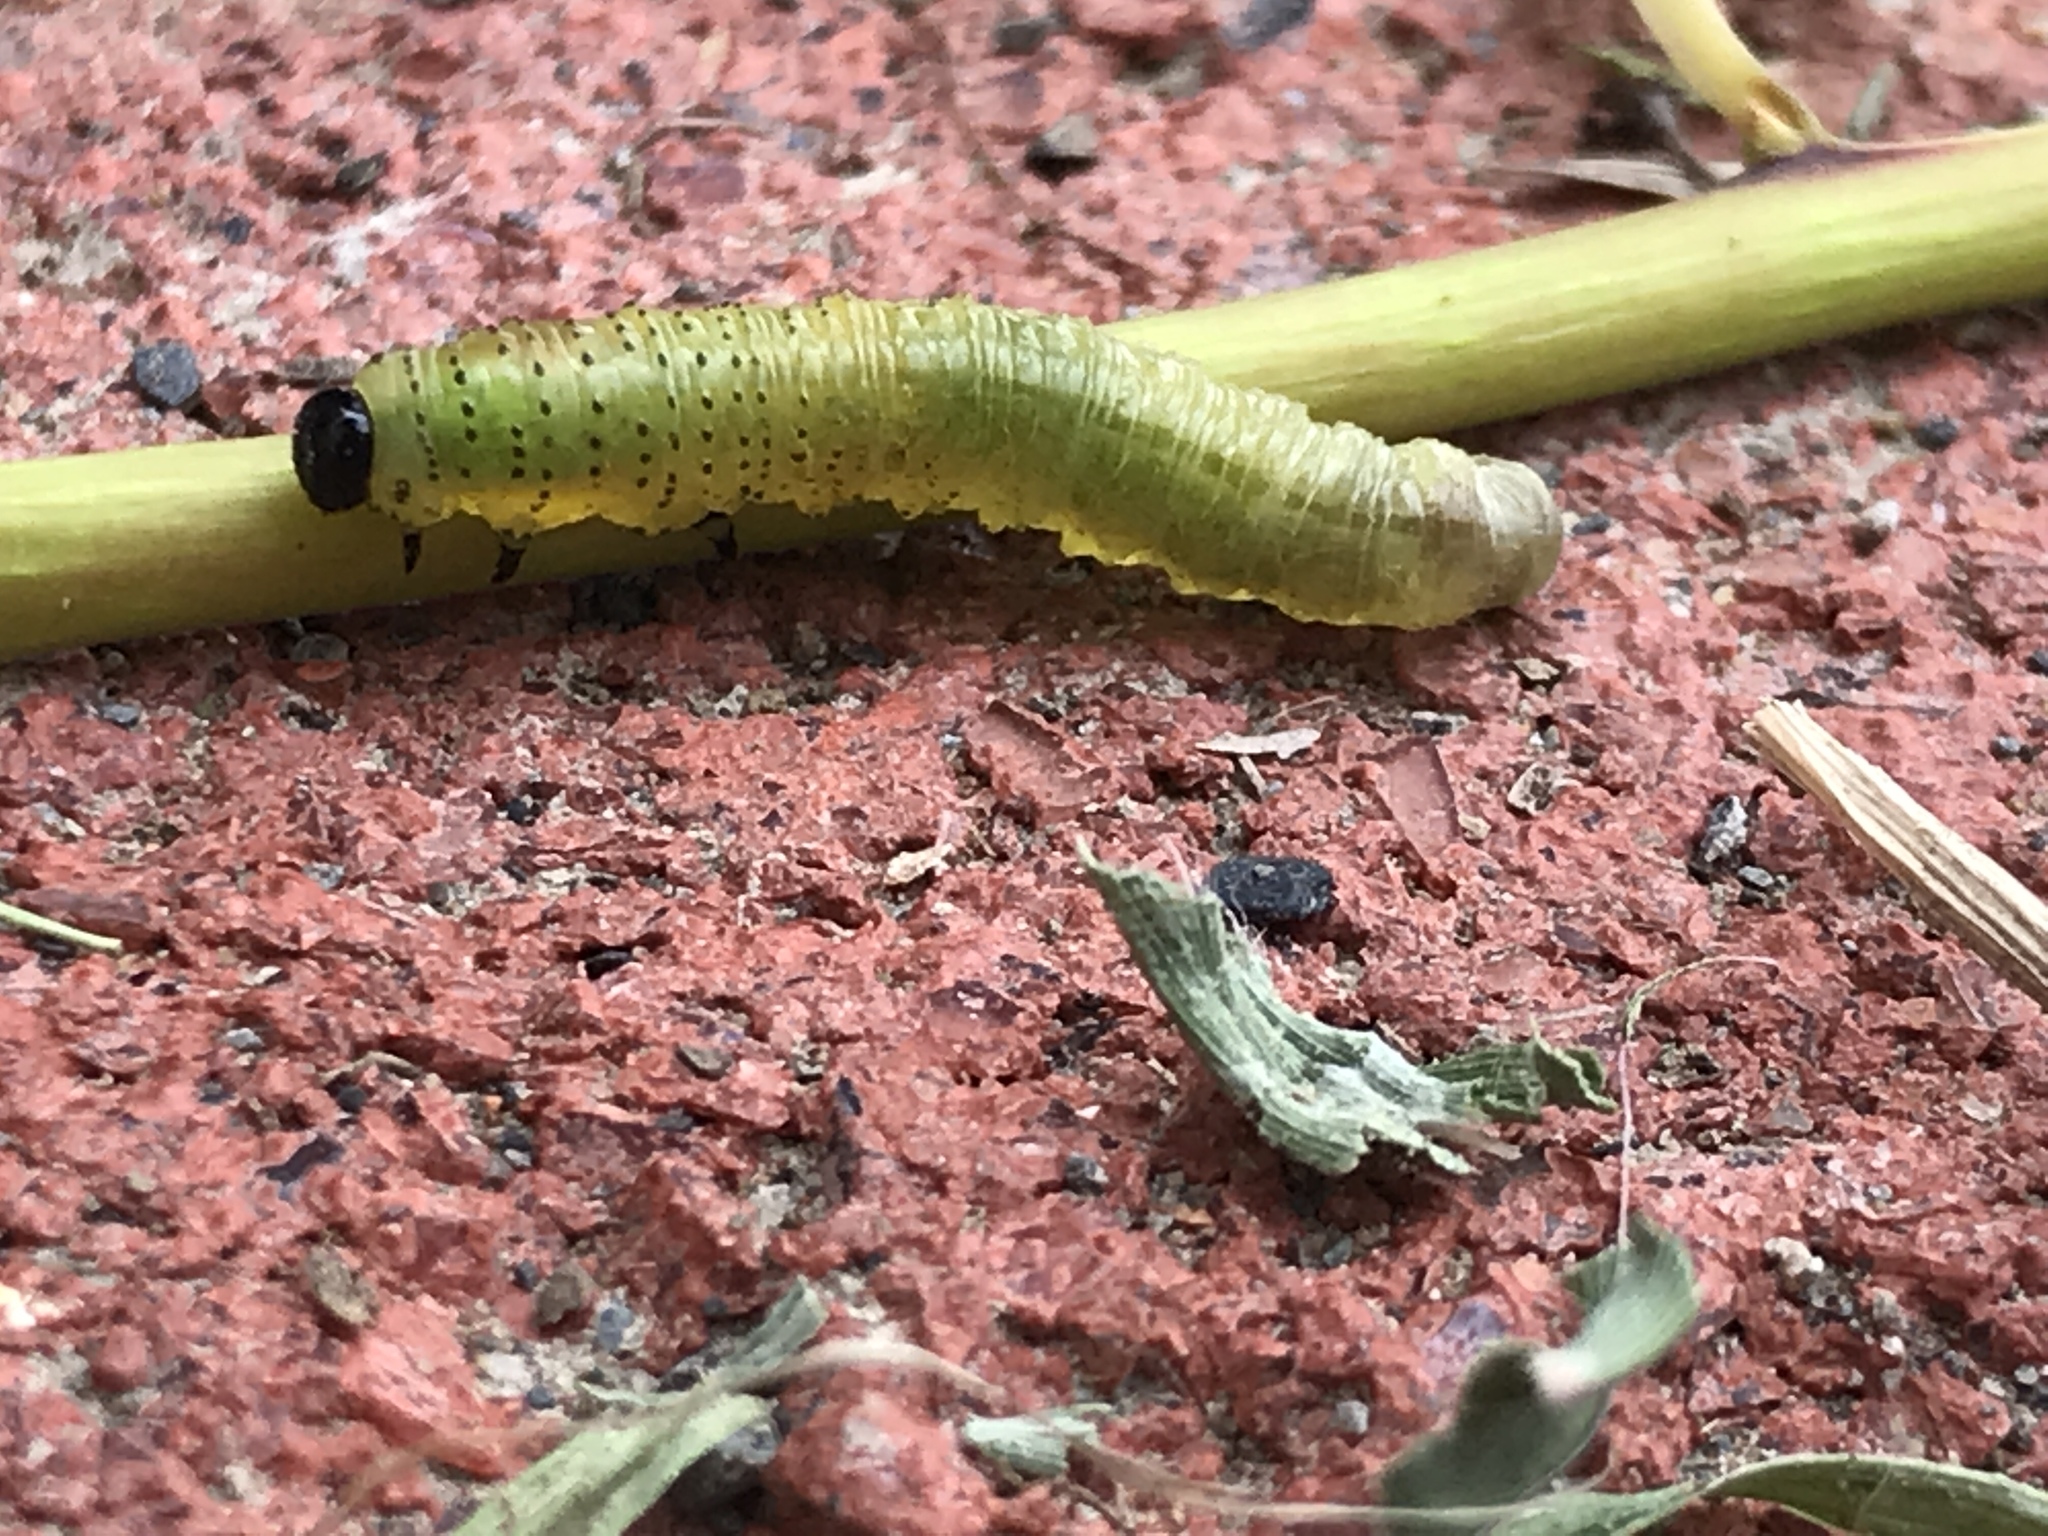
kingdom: Animalia
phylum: Arthropoda
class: Insecta
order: Hymenoptera
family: Tenthredinidae
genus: Moricella
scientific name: Moricella rufonota
